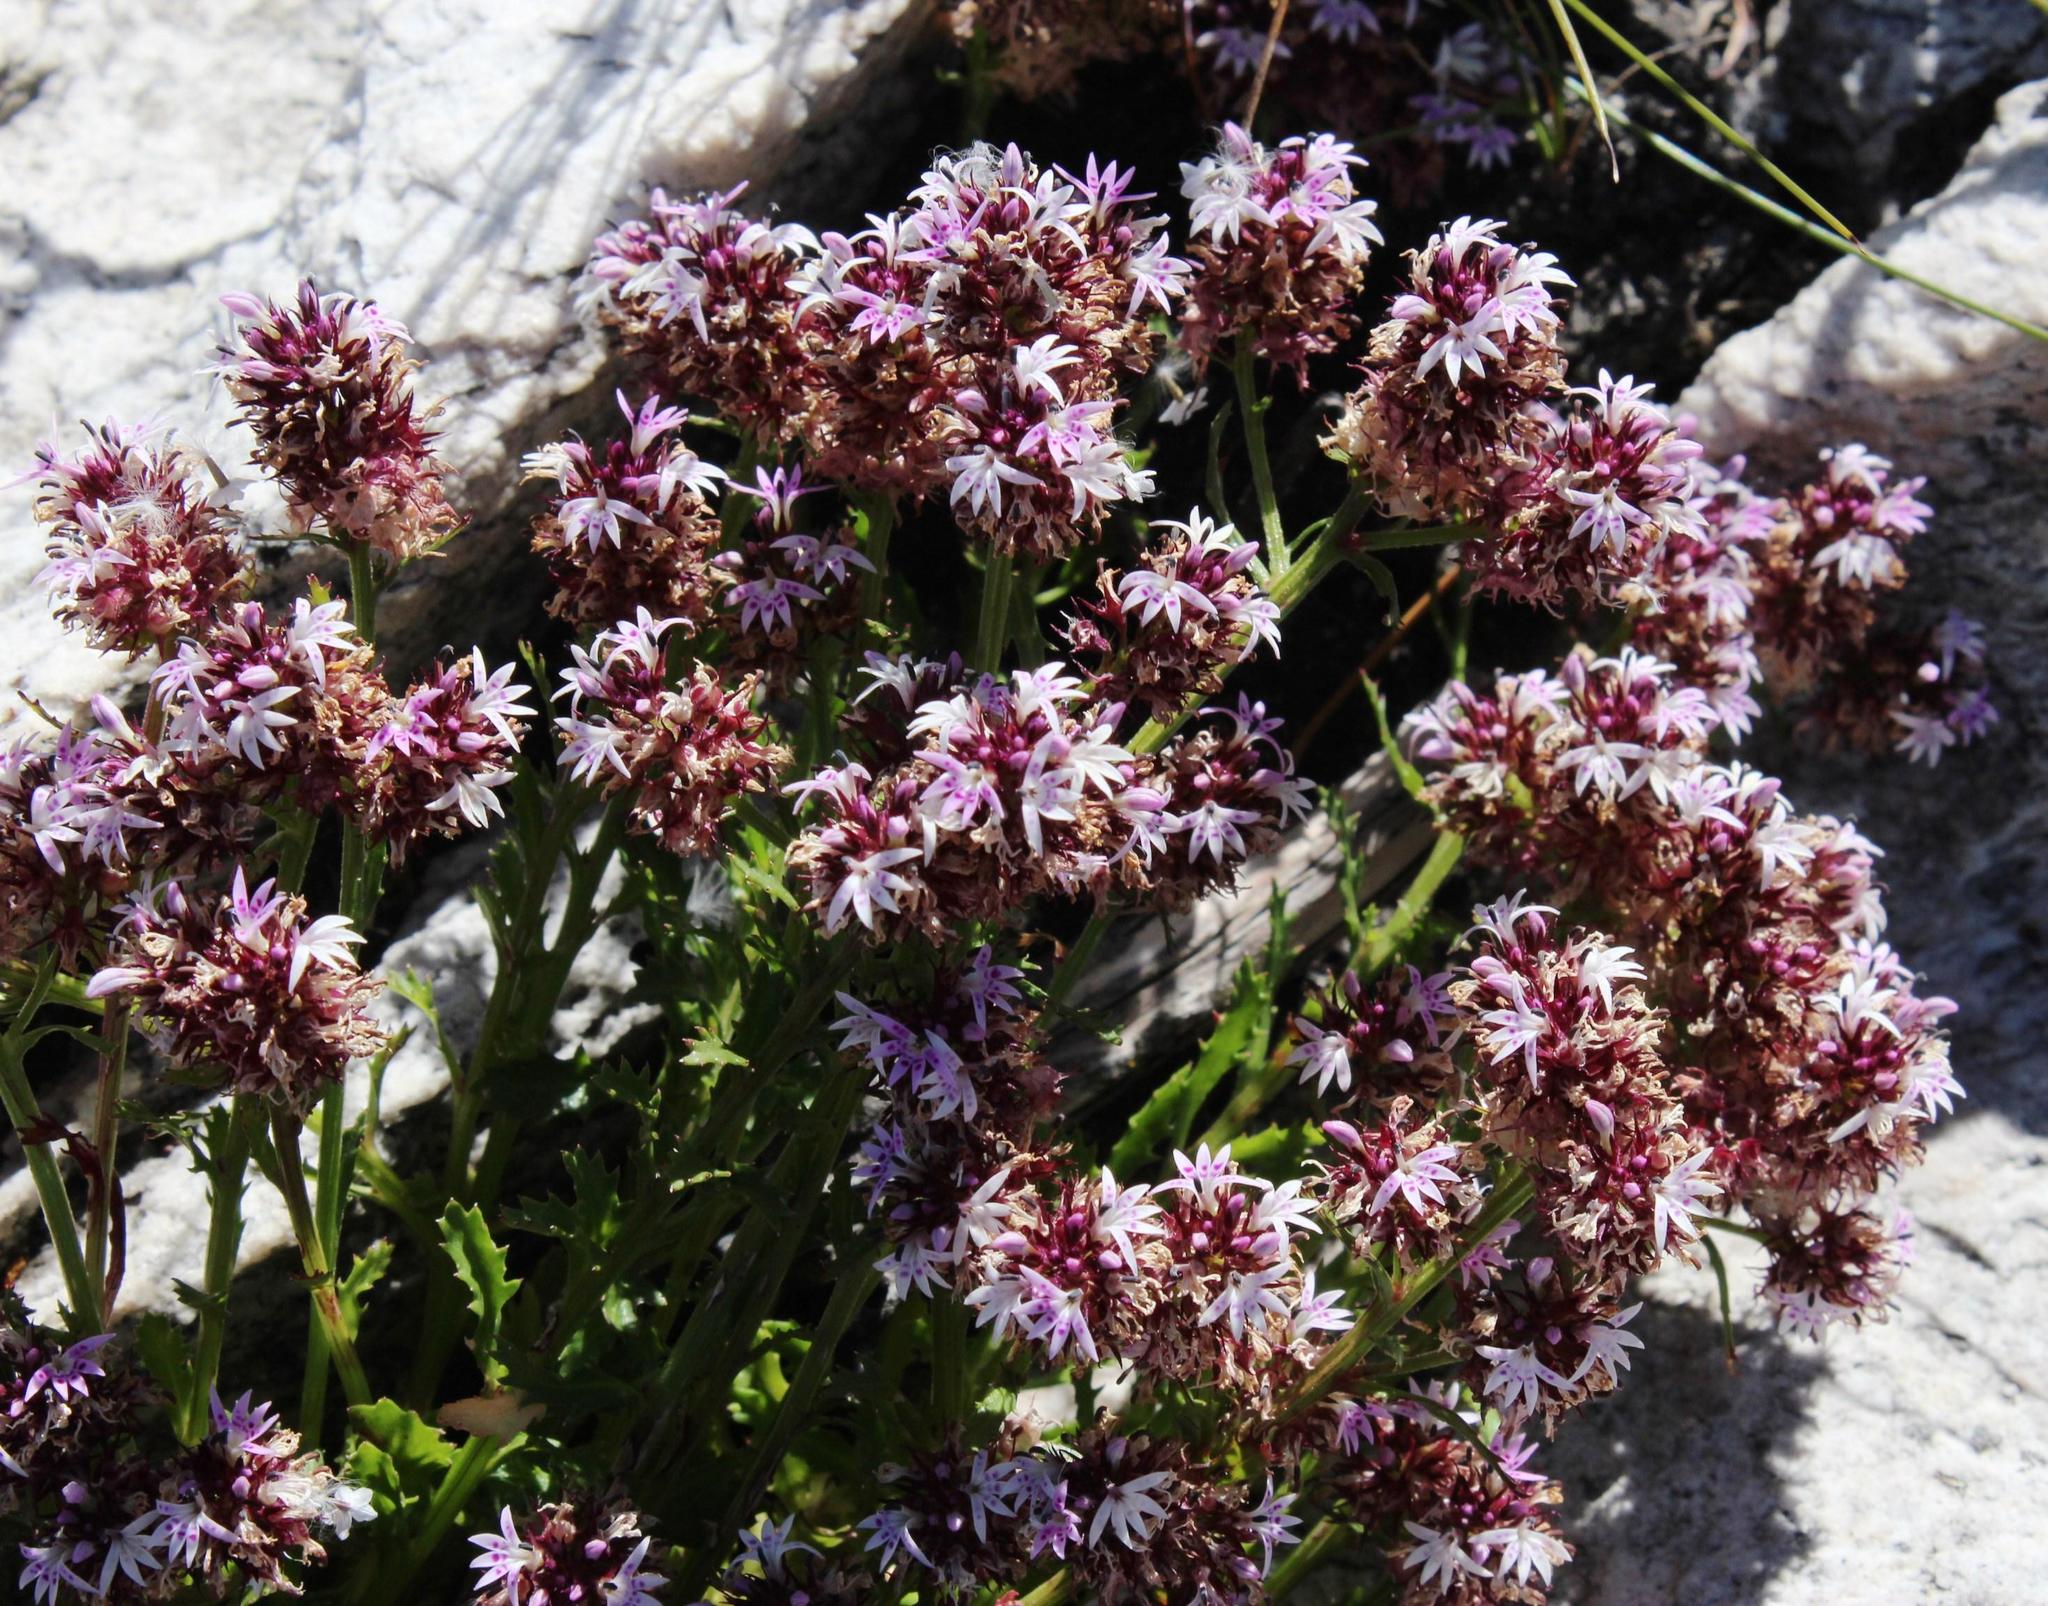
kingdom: Plantae
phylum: Tracheophyta
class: Magnoliopsida
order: Asterales
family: Campanulaceae
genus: Lobelia
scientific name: Lobelia jasionoides
